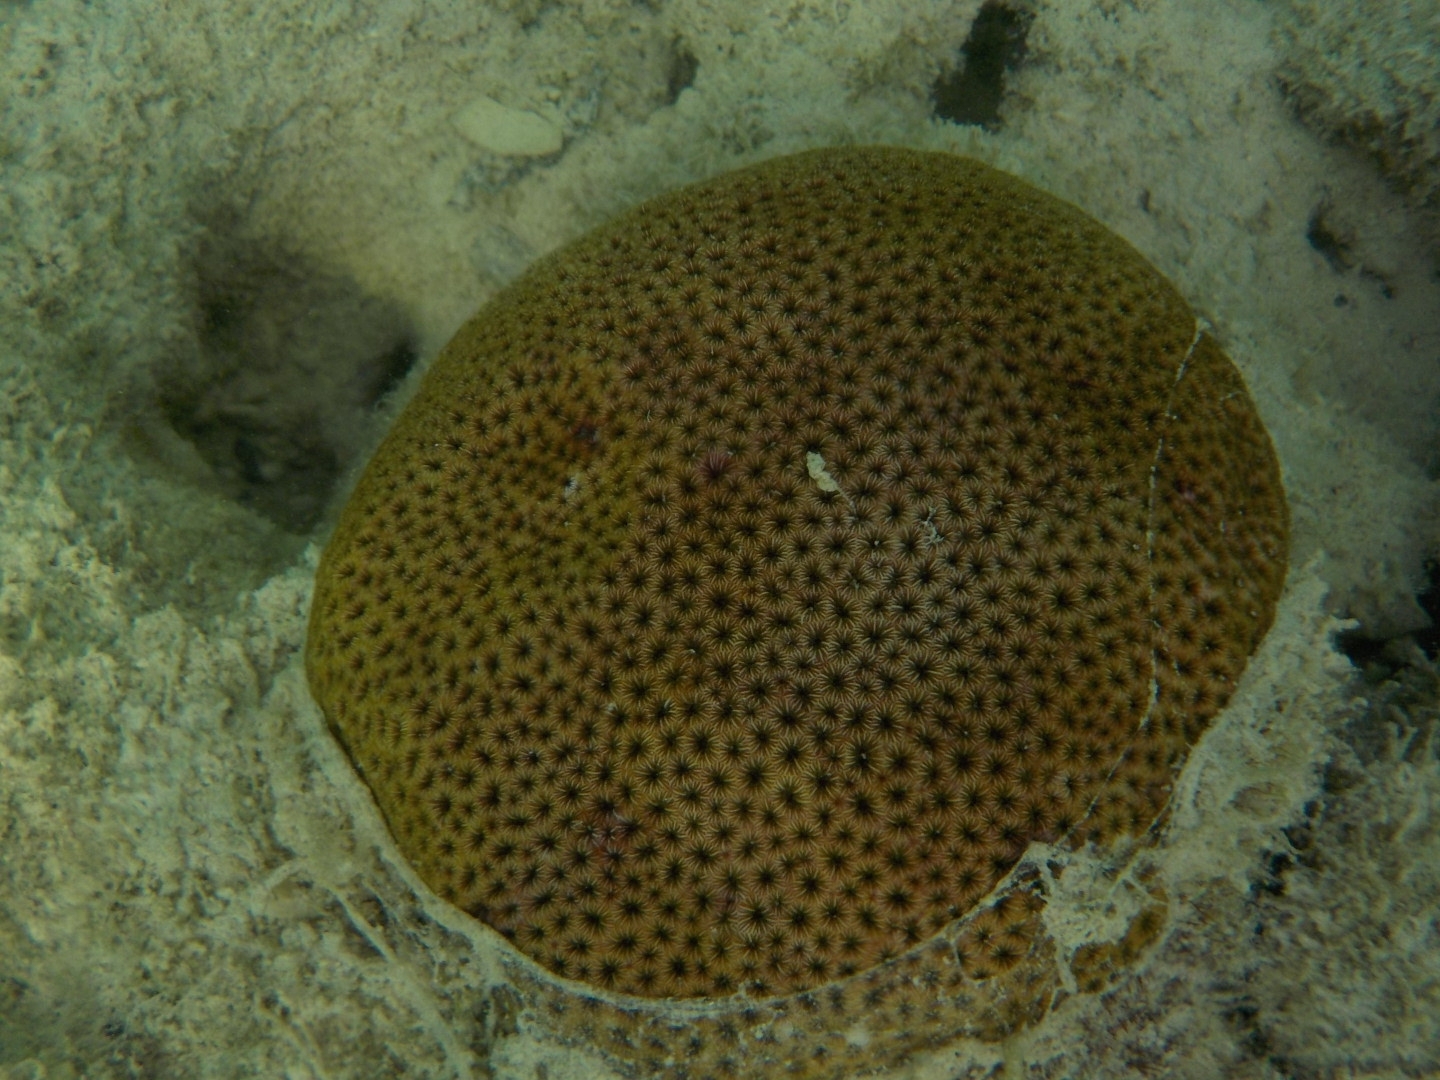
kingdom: Animalia
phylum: Cnidaria
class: Anthozoa
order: Scleractinia
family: Rhizangiidae
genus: Siderastrea
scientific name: Siderastrea radians
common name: Lesser starlet coral
